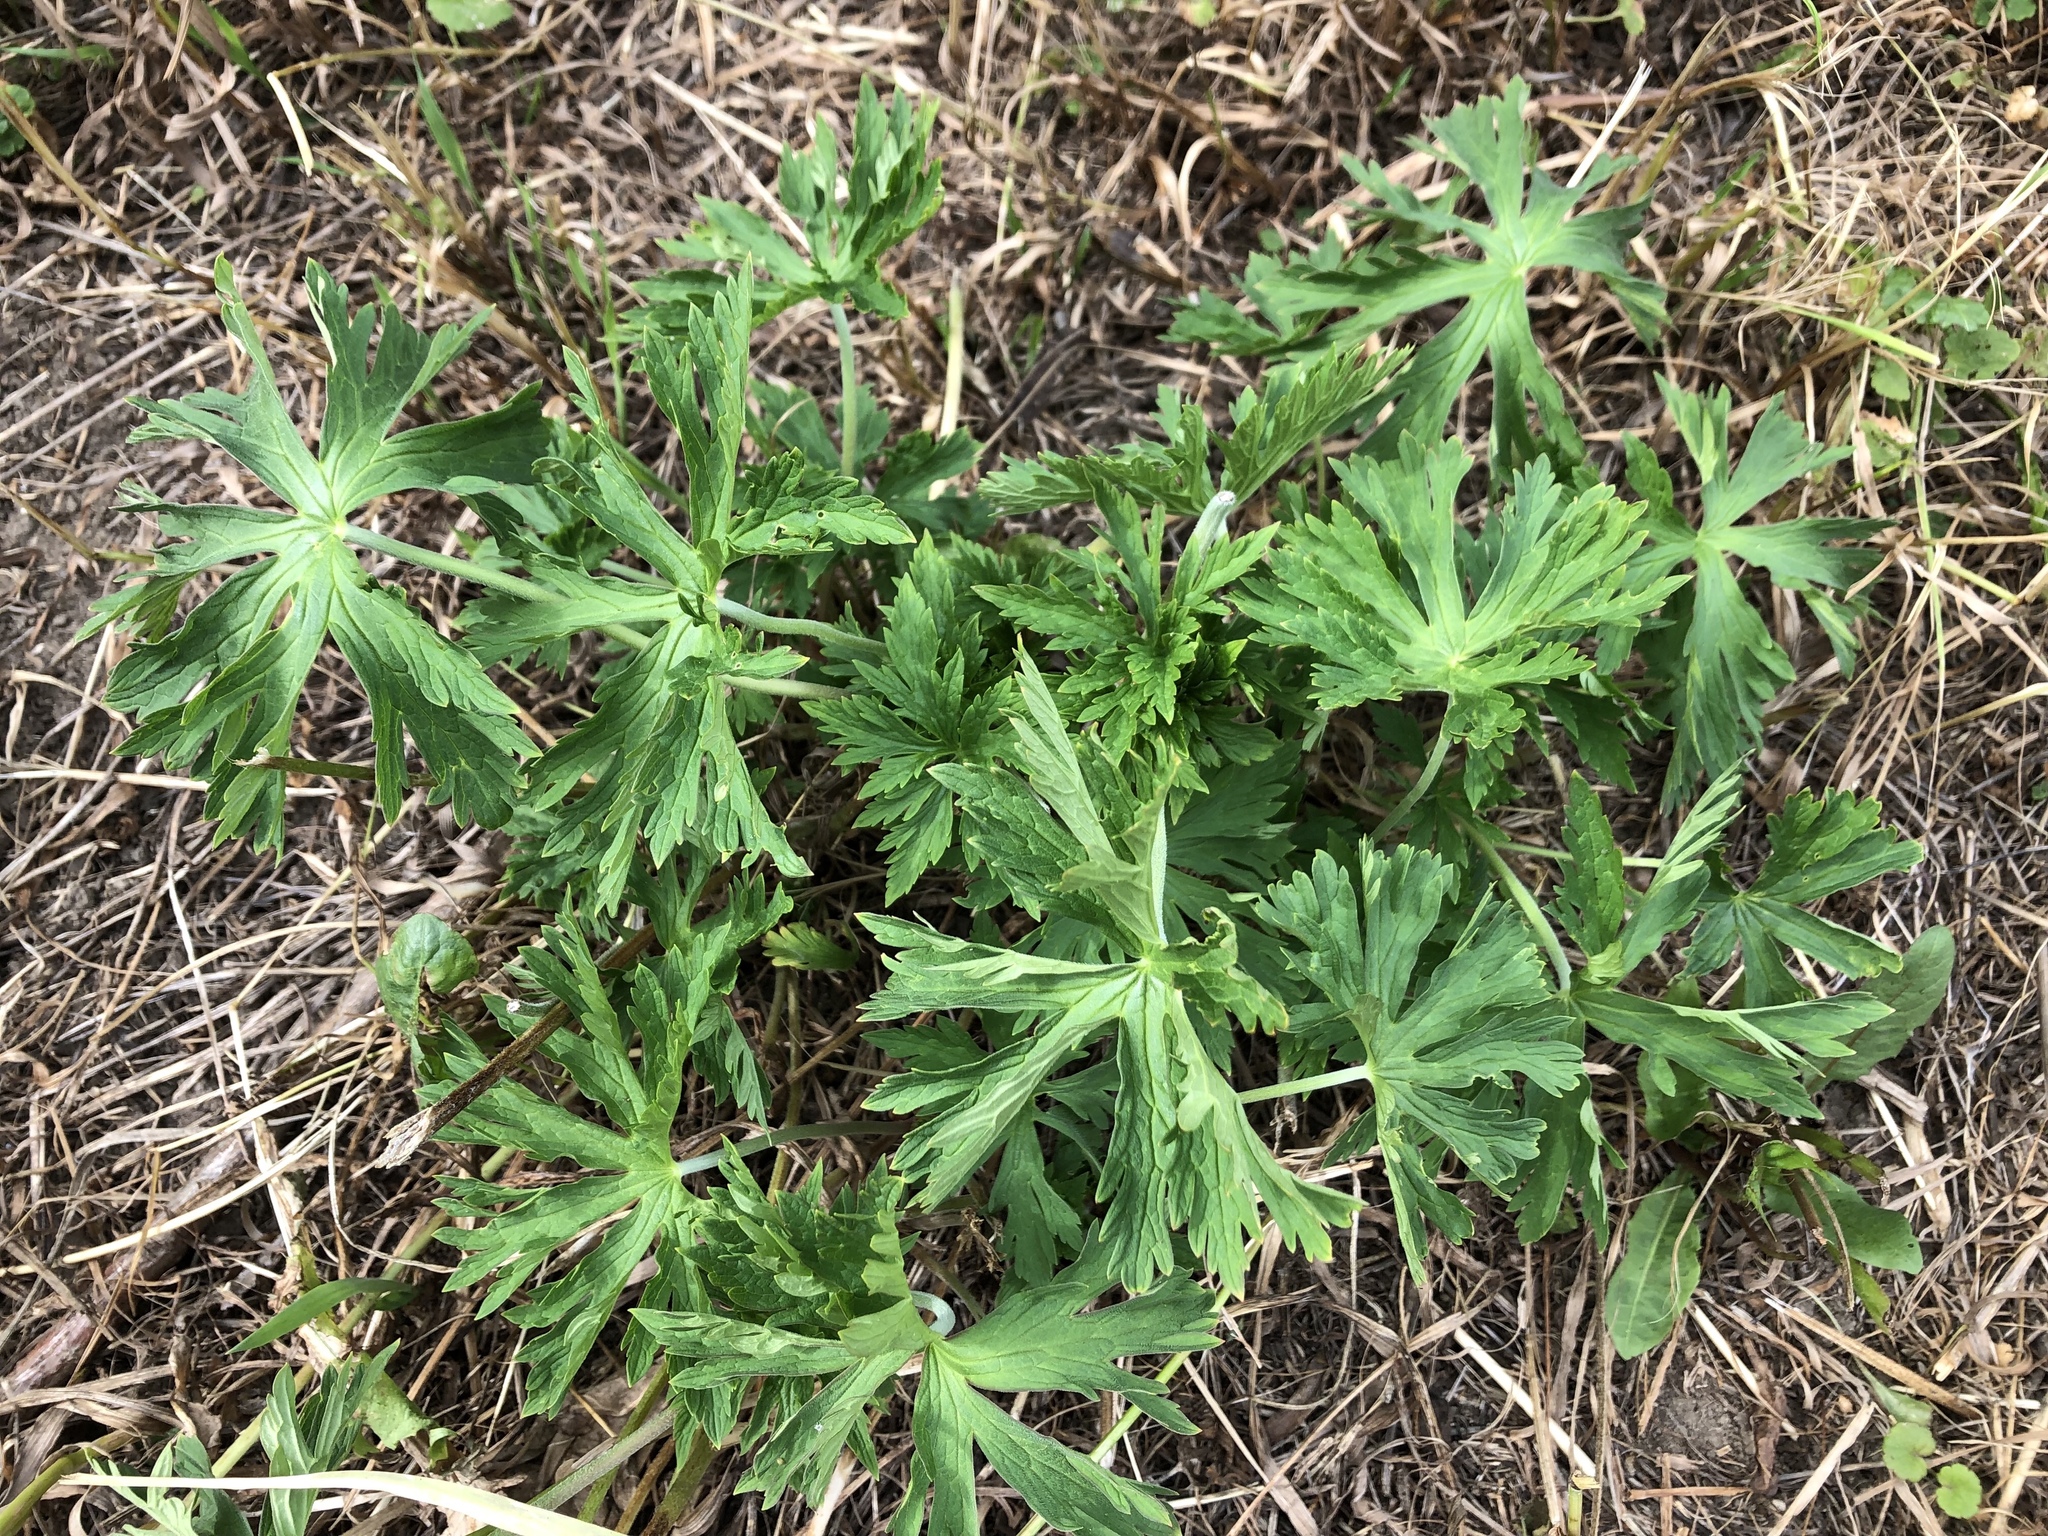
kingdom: Plantae
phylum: Tracheophyta
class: Magnoliopsida
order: Geraniales
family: Geraniaceae
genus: Geranium
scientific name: Geranium pratense
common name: Meadow crane's-bill
